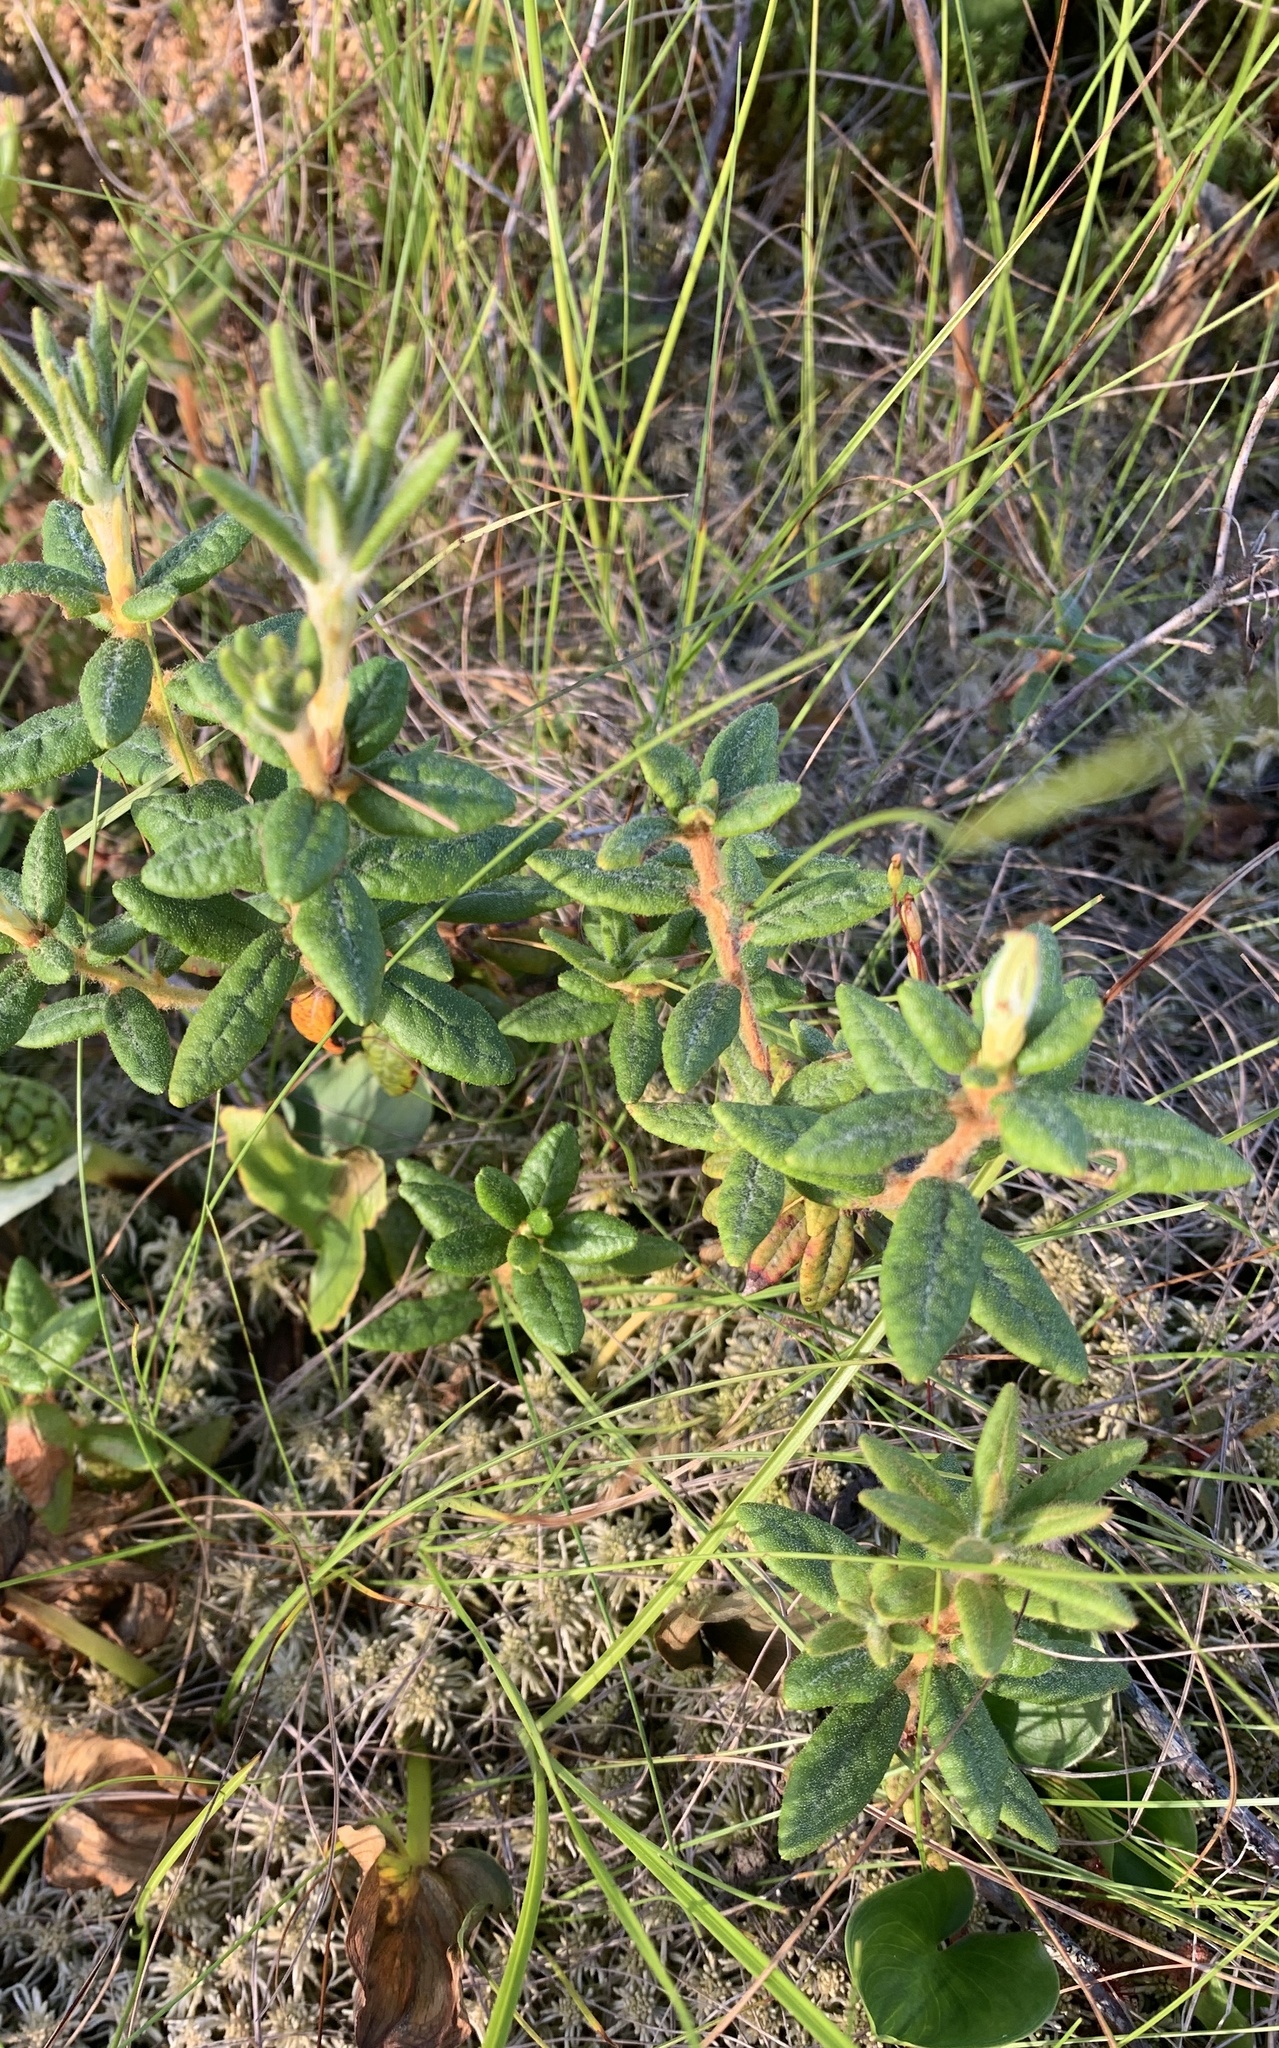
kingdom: Plantae
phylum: Tracheophyta
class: Magnoliopsida
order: Ericales
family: Ericaceae
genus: Rhododendron
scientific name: Rhododendron groenlandicum
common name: Bog labrador tea
